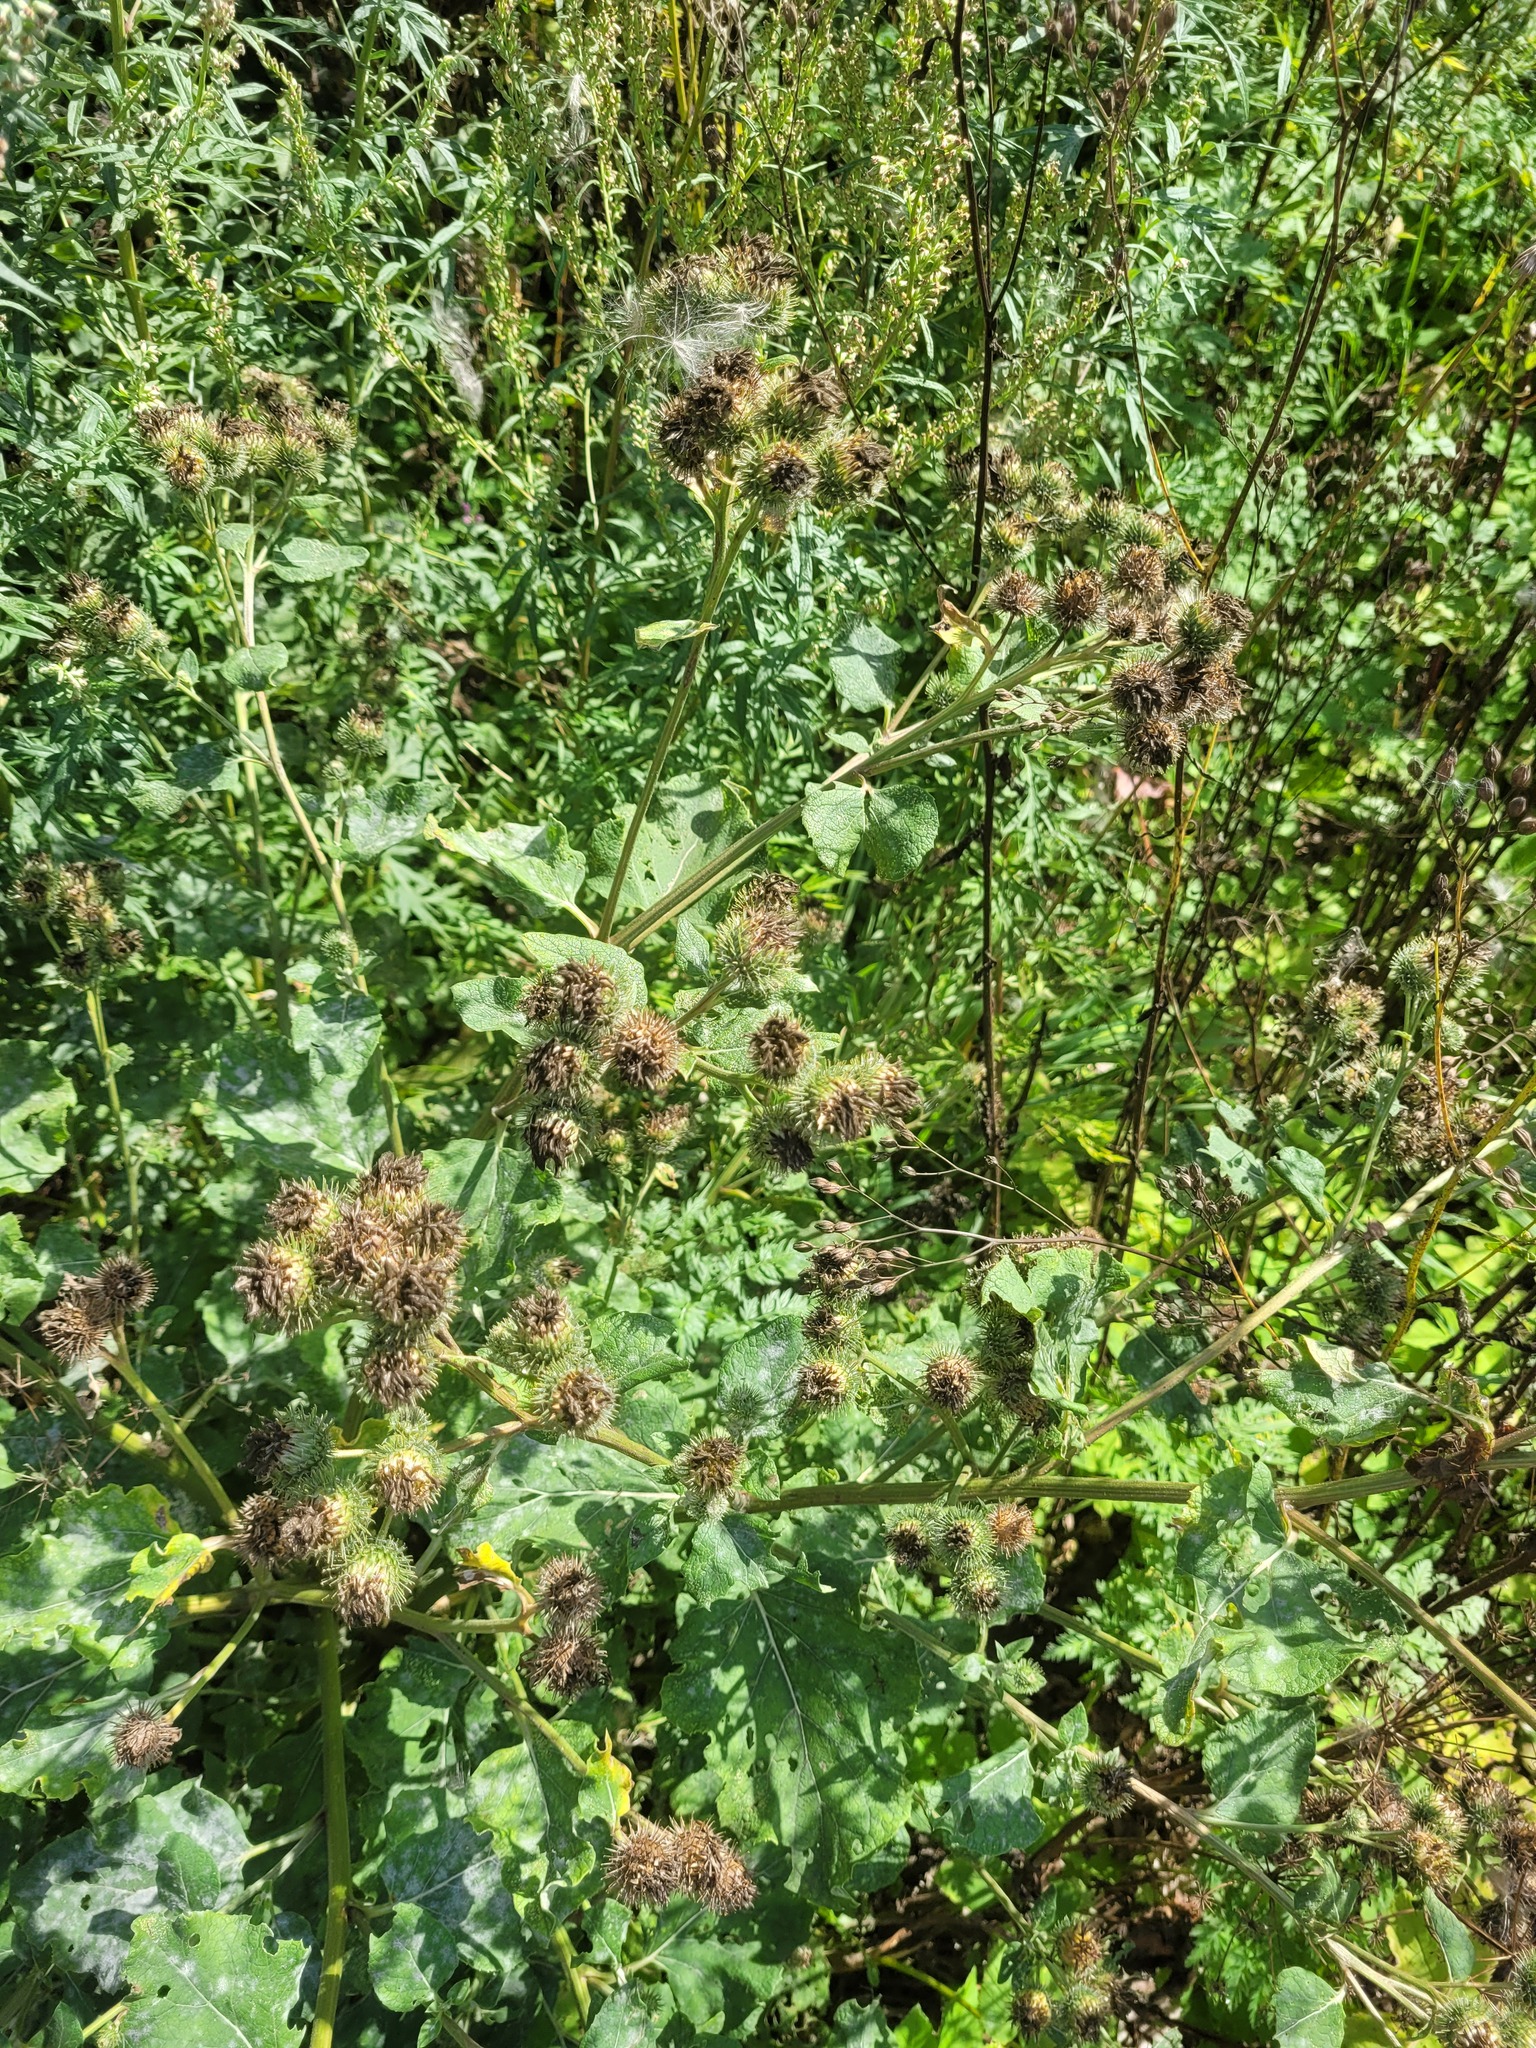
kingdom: Plantae
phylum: Tracheophyta
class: Magnoliopsida
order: Asterales
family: Asteraceae
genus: Arctium
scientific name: Arctium tomentosum
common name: Woolly burdock
